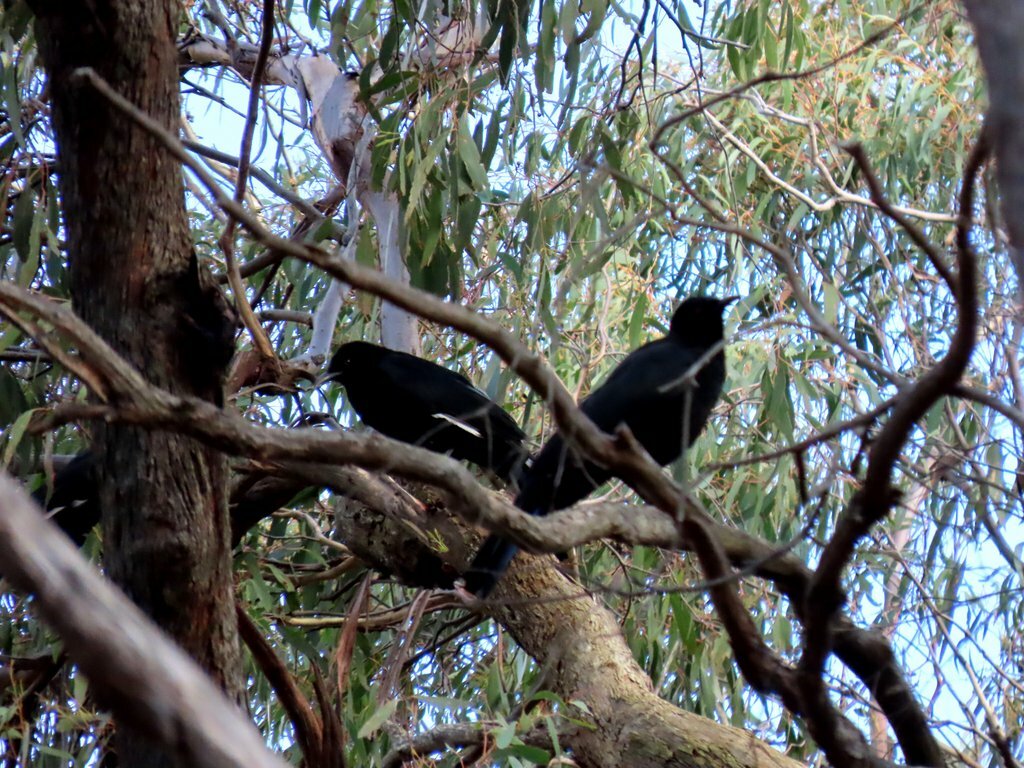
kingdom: Animalia
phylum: Chordata
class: Aves
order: Passeriformes
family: Corcoracidae
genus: Corcorax
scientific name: Corcorax melanoramphos
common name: White-winged chough
